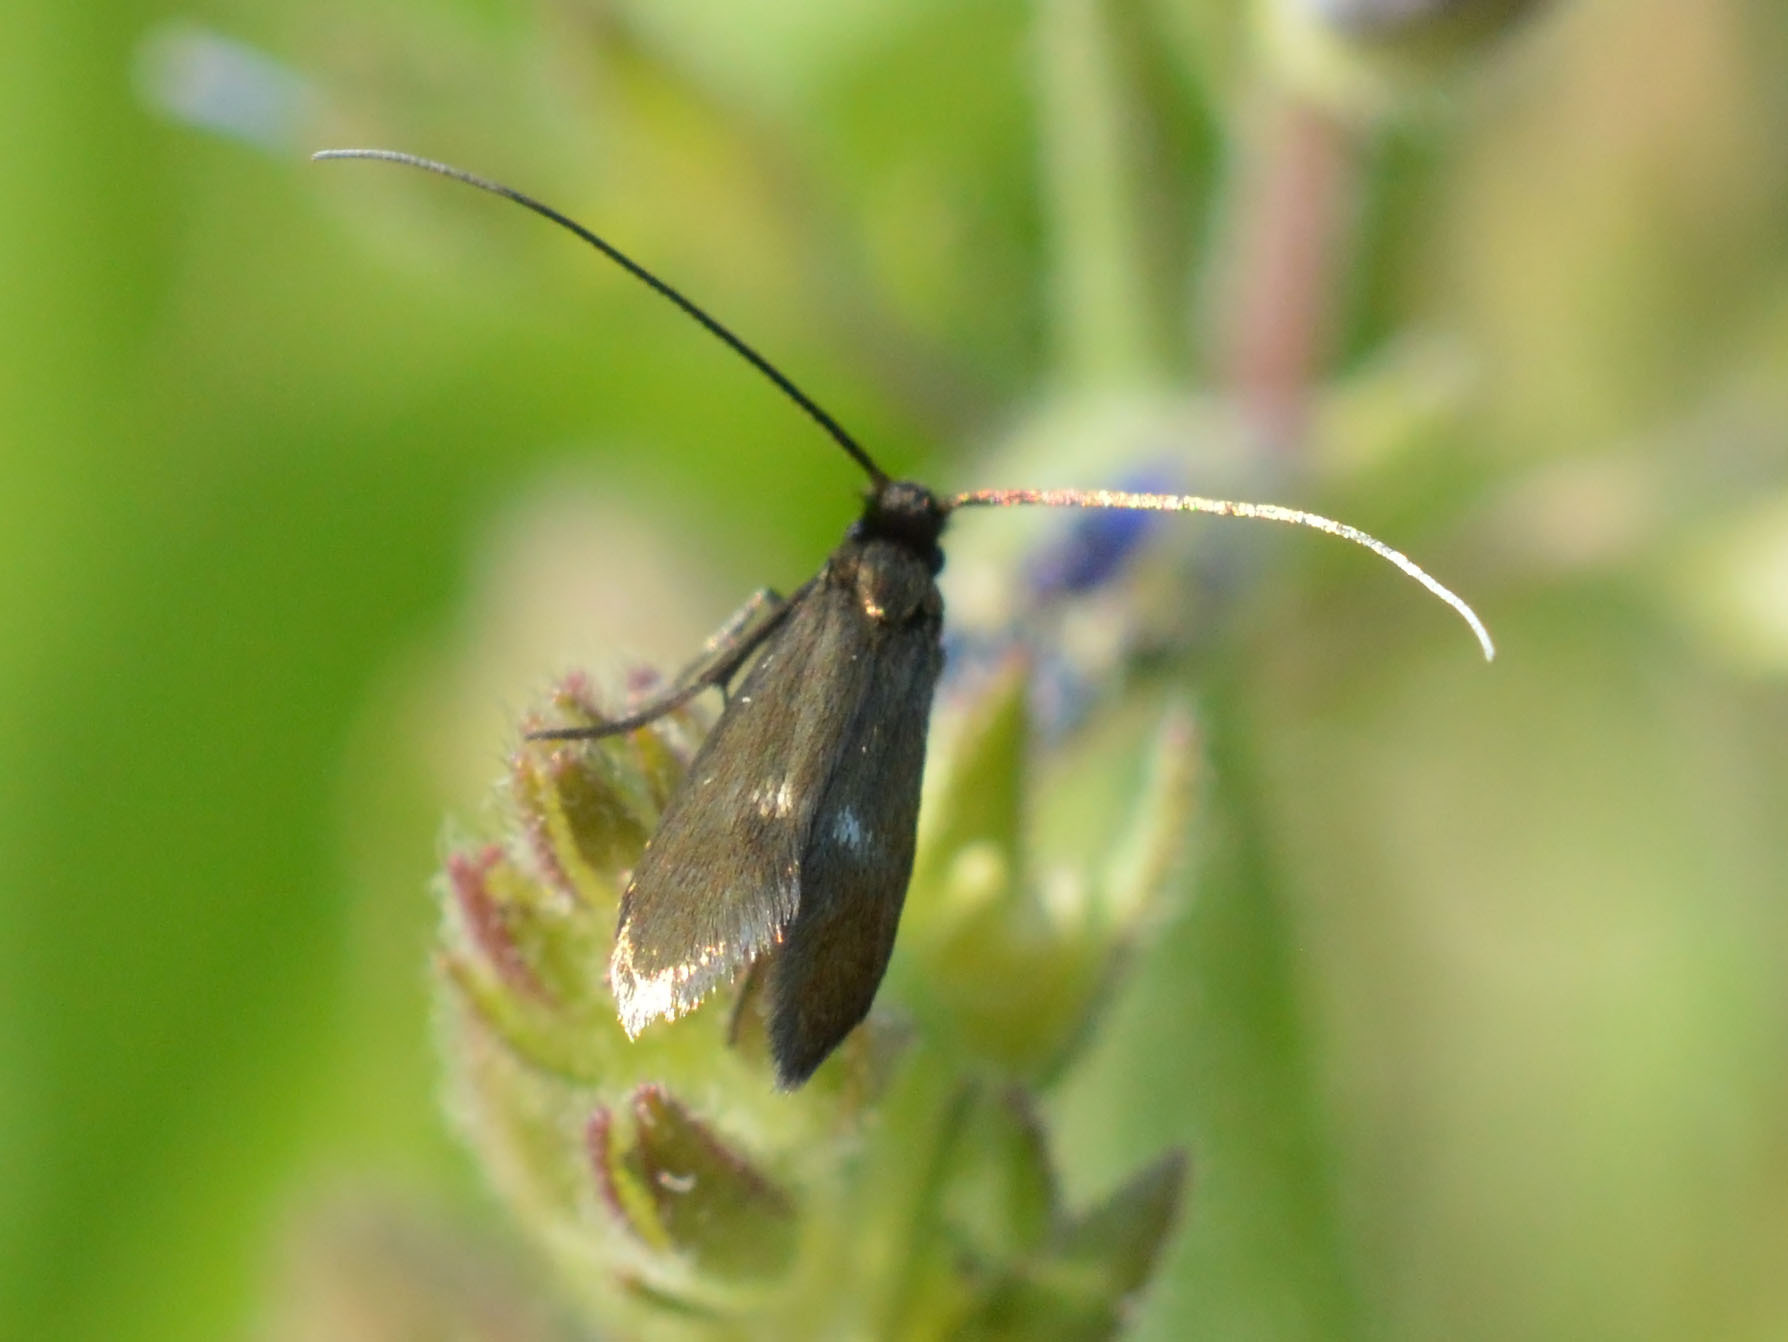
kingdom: Animalia
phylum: Arthropoda
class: Insecta
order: Lepidoptera
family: Adelidae
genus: Cauchas
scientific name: Cauchas fibulella
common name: Little long-horn
